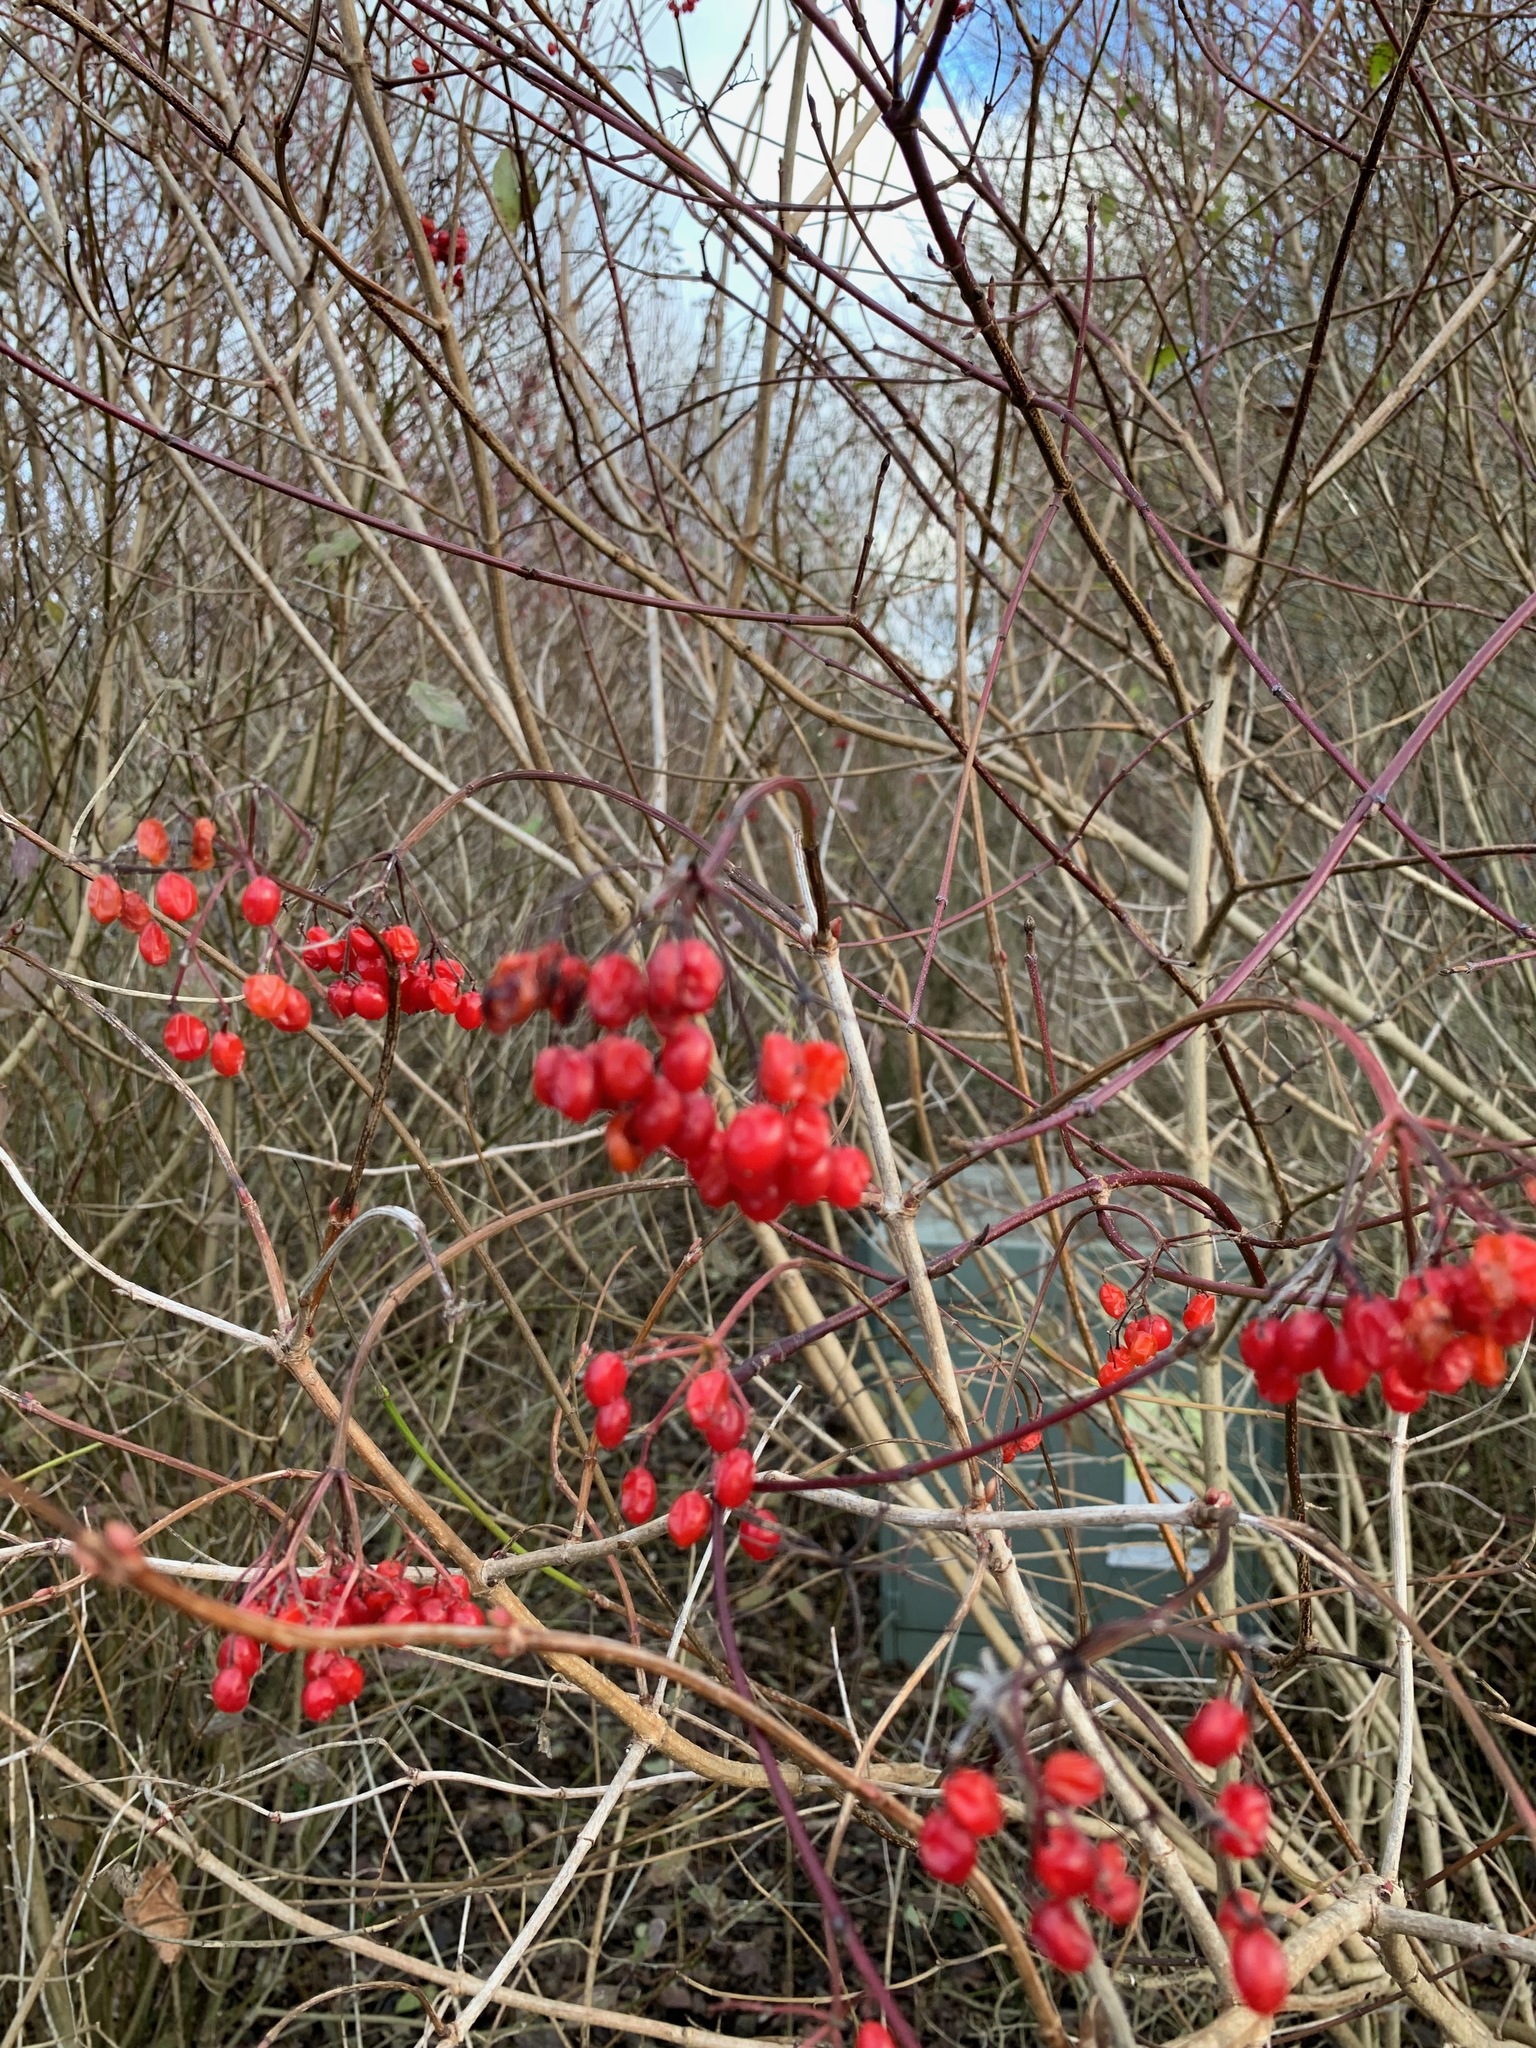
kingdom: Plantae
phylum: Tracheophyta
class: Magnoliopsida
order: Dipsacales
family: Viburnaceae
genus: Viburnum
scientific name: Viburnum opulus
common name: Guelder-rose
